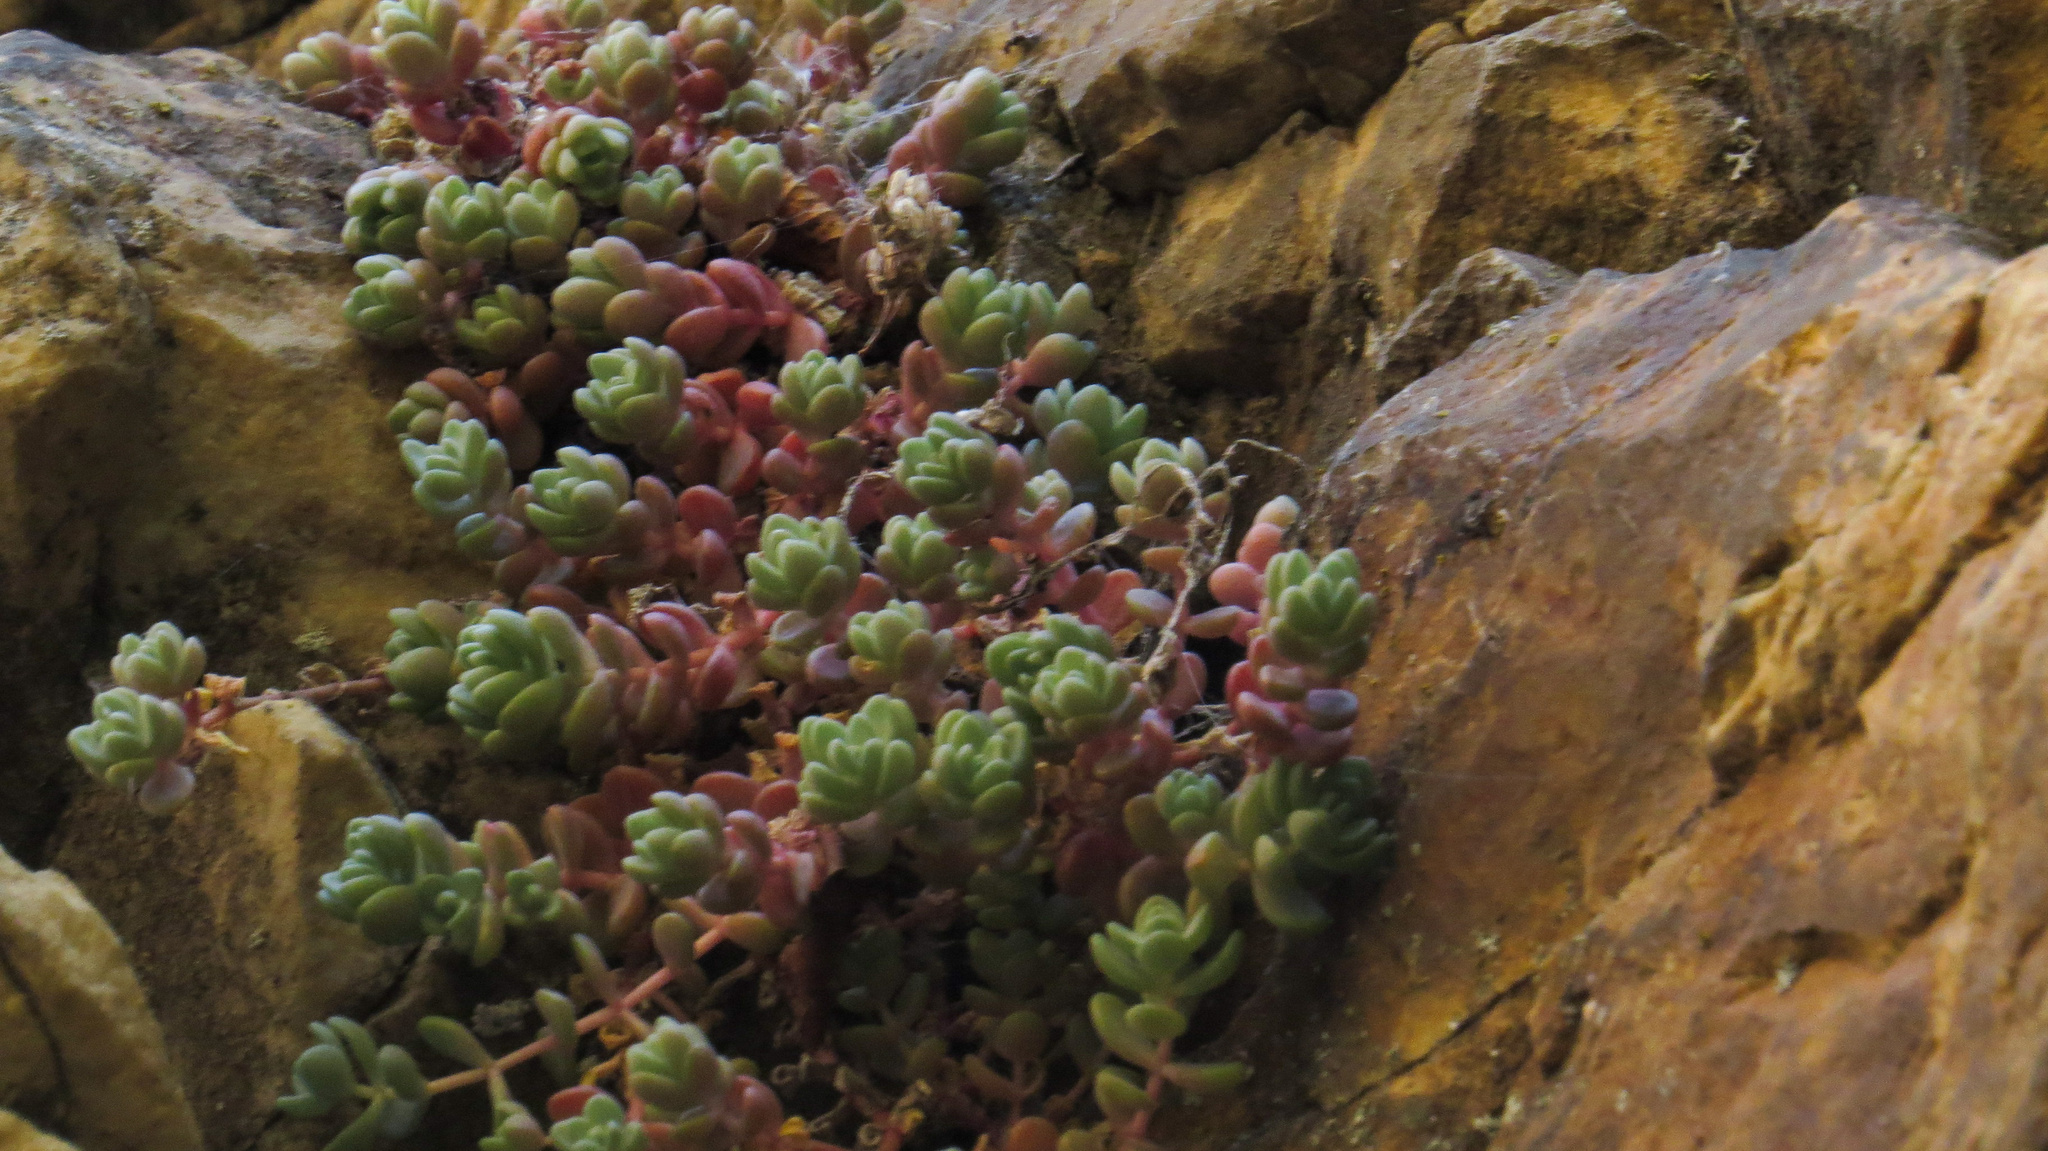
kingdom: Plantae
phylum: Tracheophyta
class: Magnoliopsida
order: Saxifragales
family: Crassulaceae
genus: Sedum
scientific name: Sedum debile
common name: Weak-stem stonecrop
